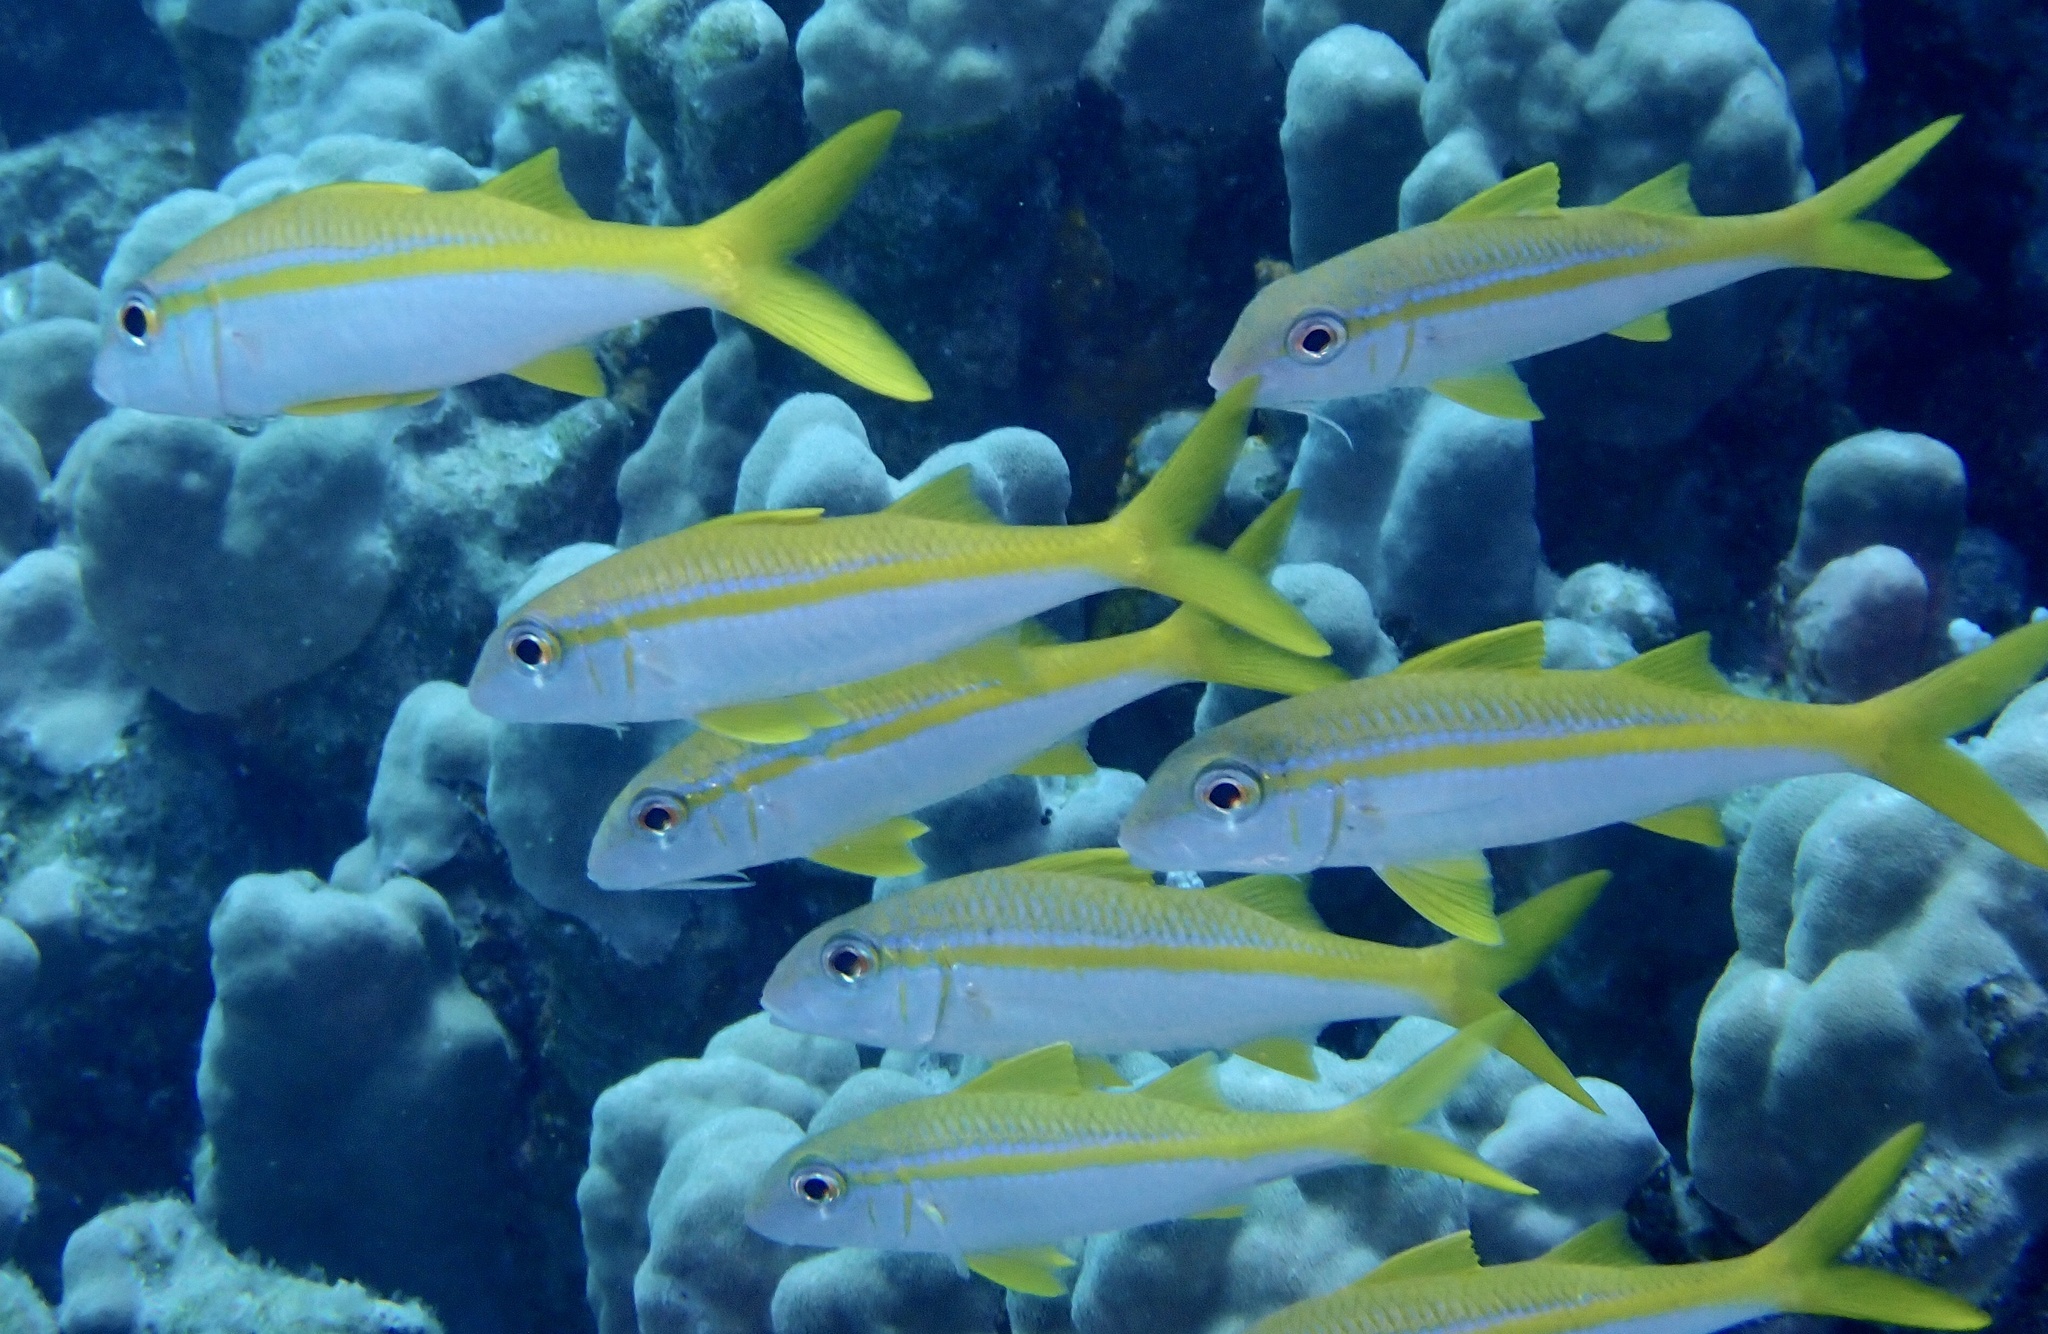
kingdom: Animalia
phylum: Chordata
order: Perciformes
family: Mullidae
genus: Mulloidichthys
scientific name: Mulloidichthys vanicolensis
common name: Yellowfin goatfish
